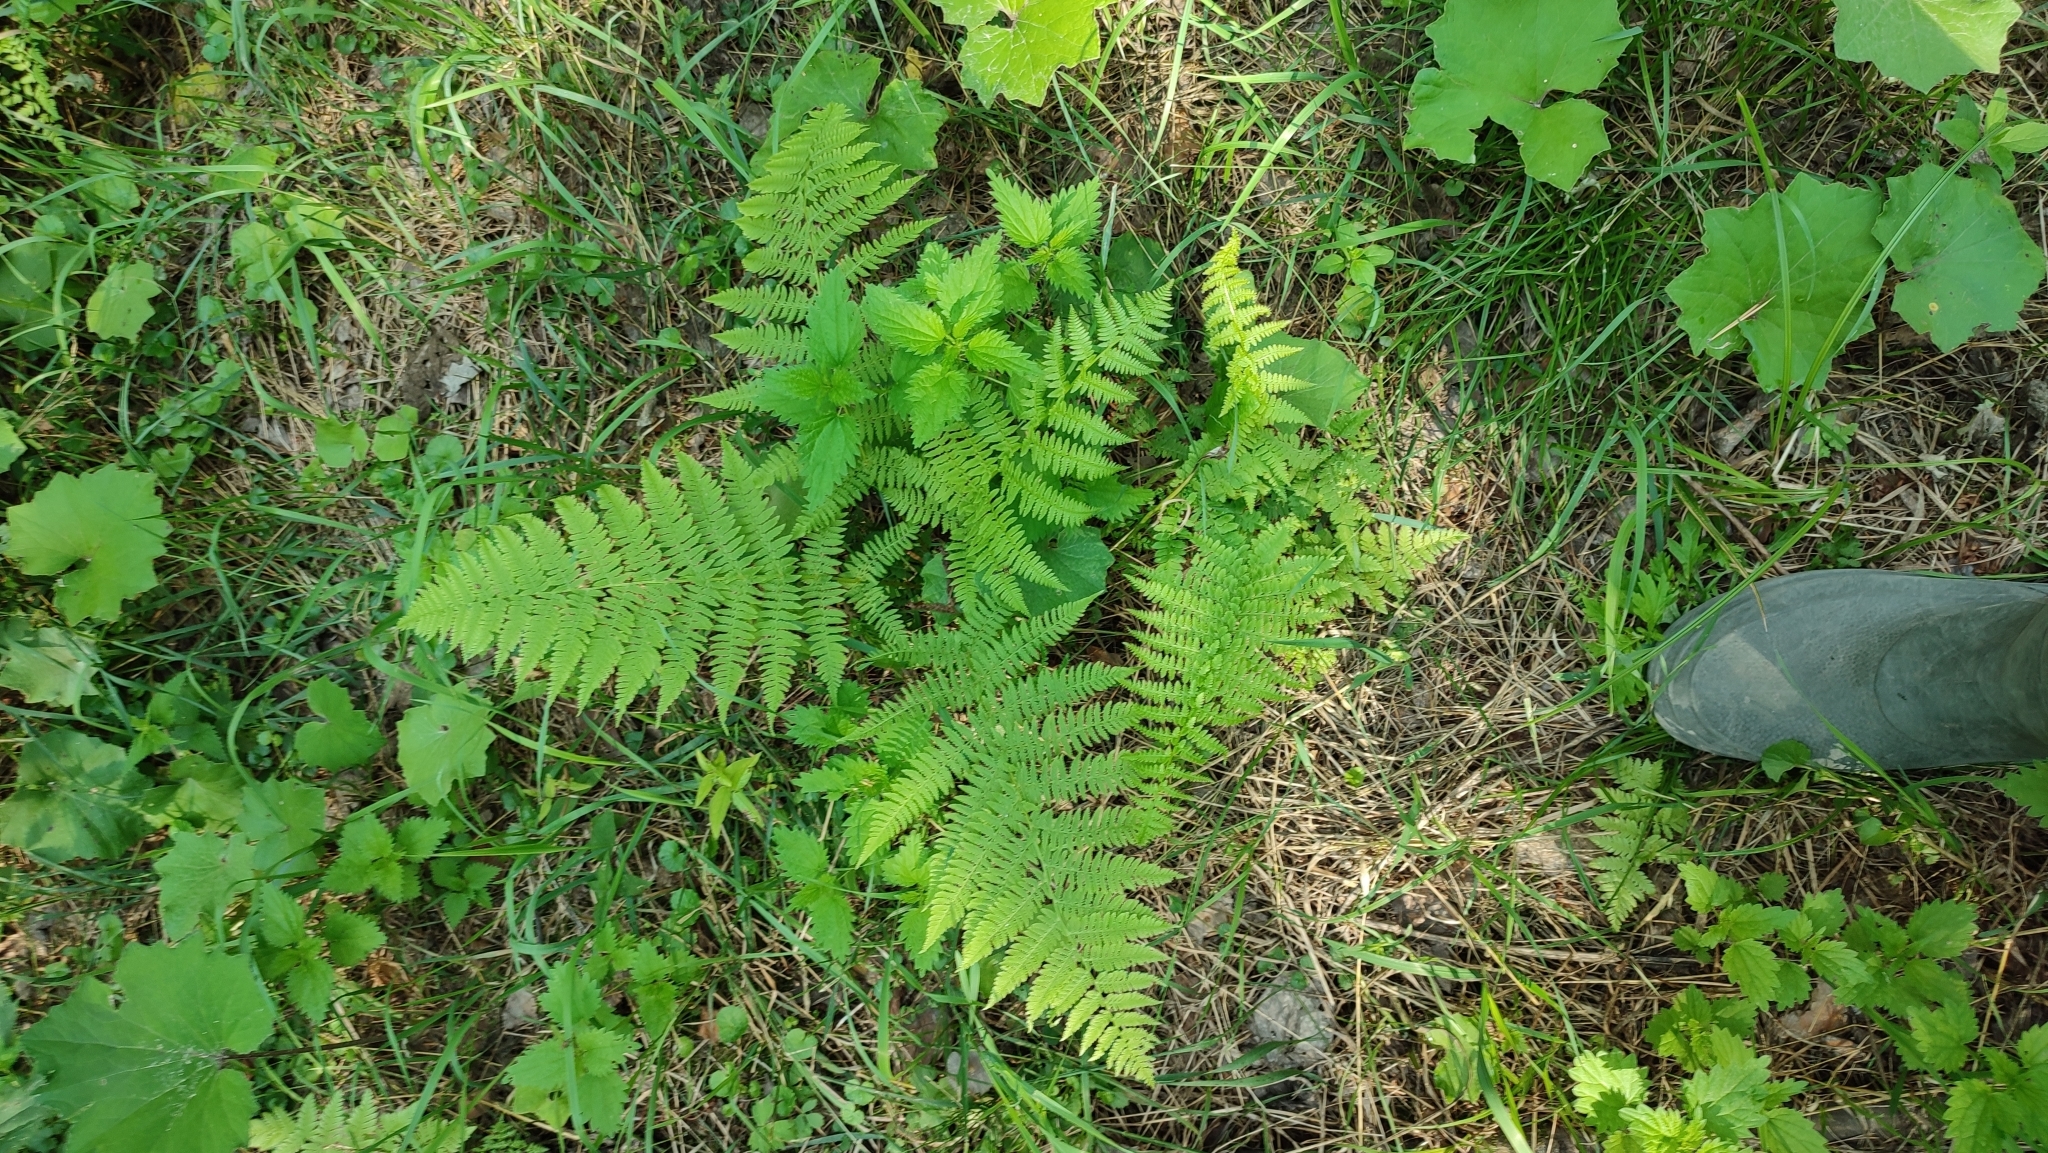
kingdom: Plantae
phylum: Tracheophyta
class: Polypodiopsida
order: Polypodiales
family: Athyriaceae
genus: Athyrium
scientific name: Athyrium filix-femina
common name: Lady fern
